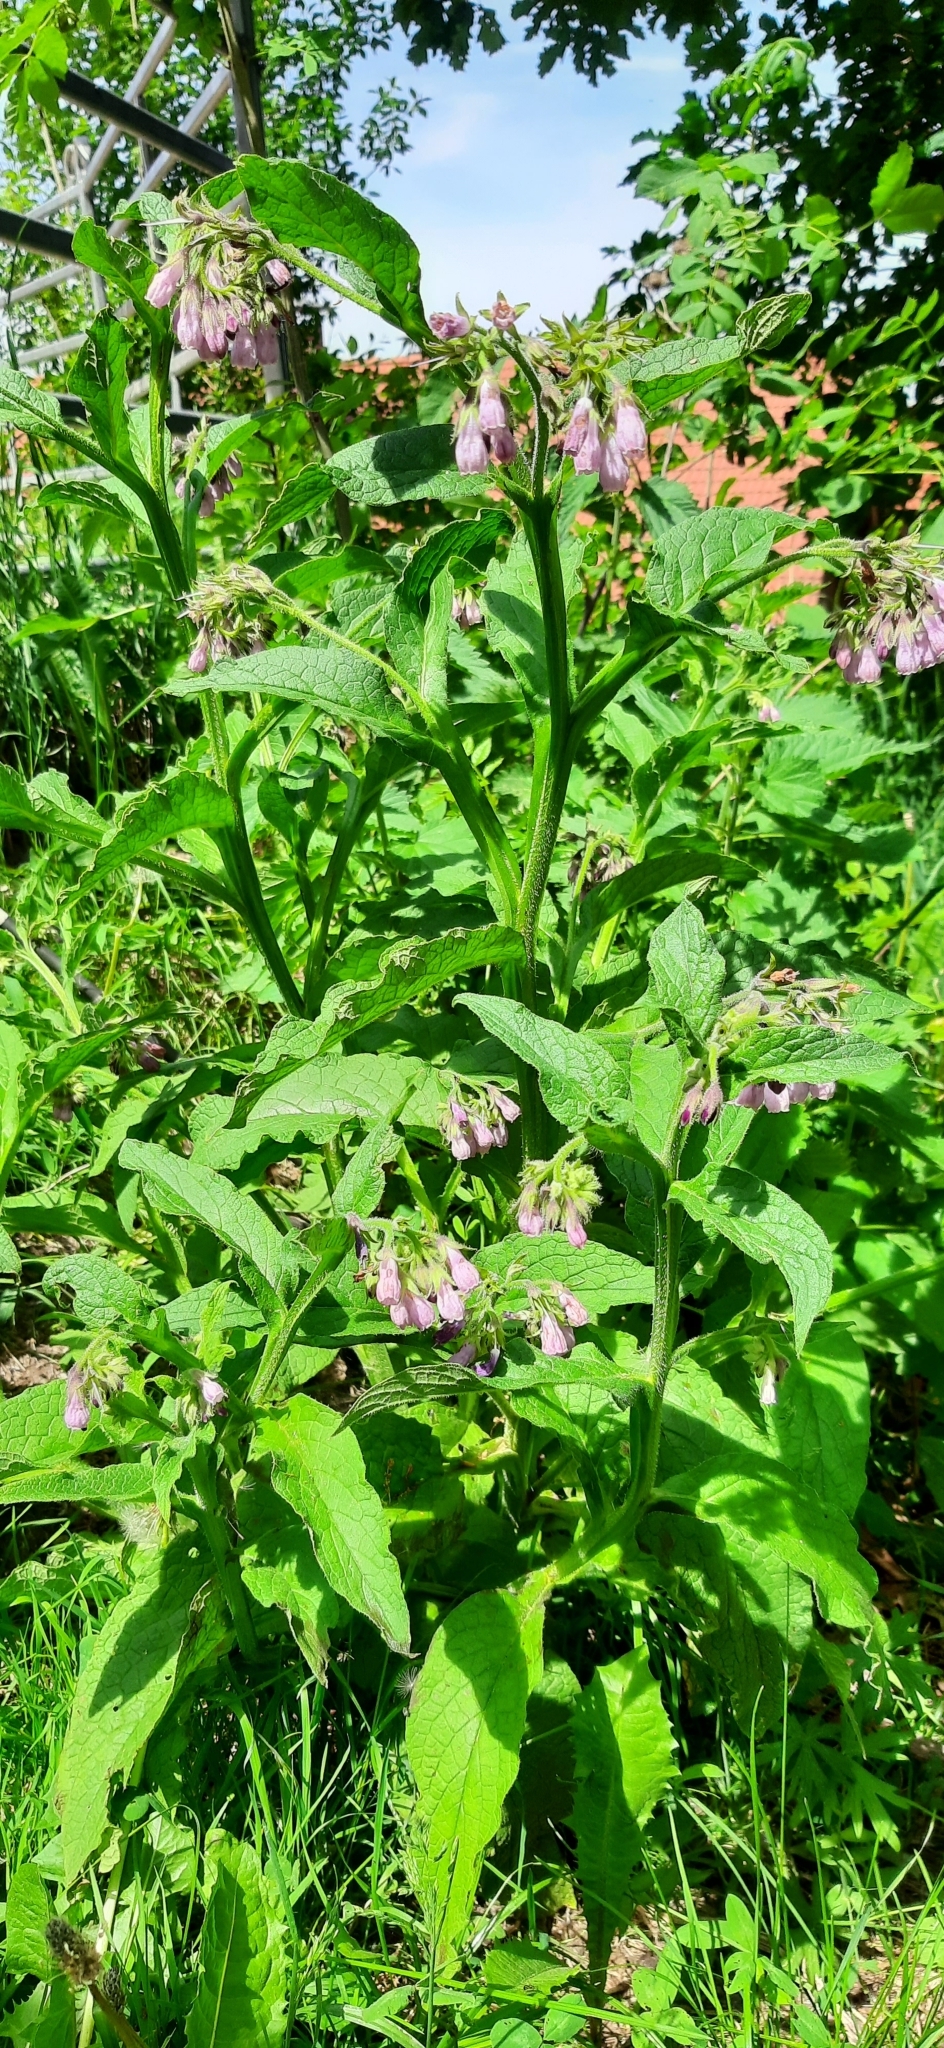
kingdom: Plantae
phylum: Tracheophyta
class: Magnoliopsida
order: Boraginales
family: Boraginaceae
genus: Symphytum
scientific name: Symphytum officinale
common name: Common comfrey
